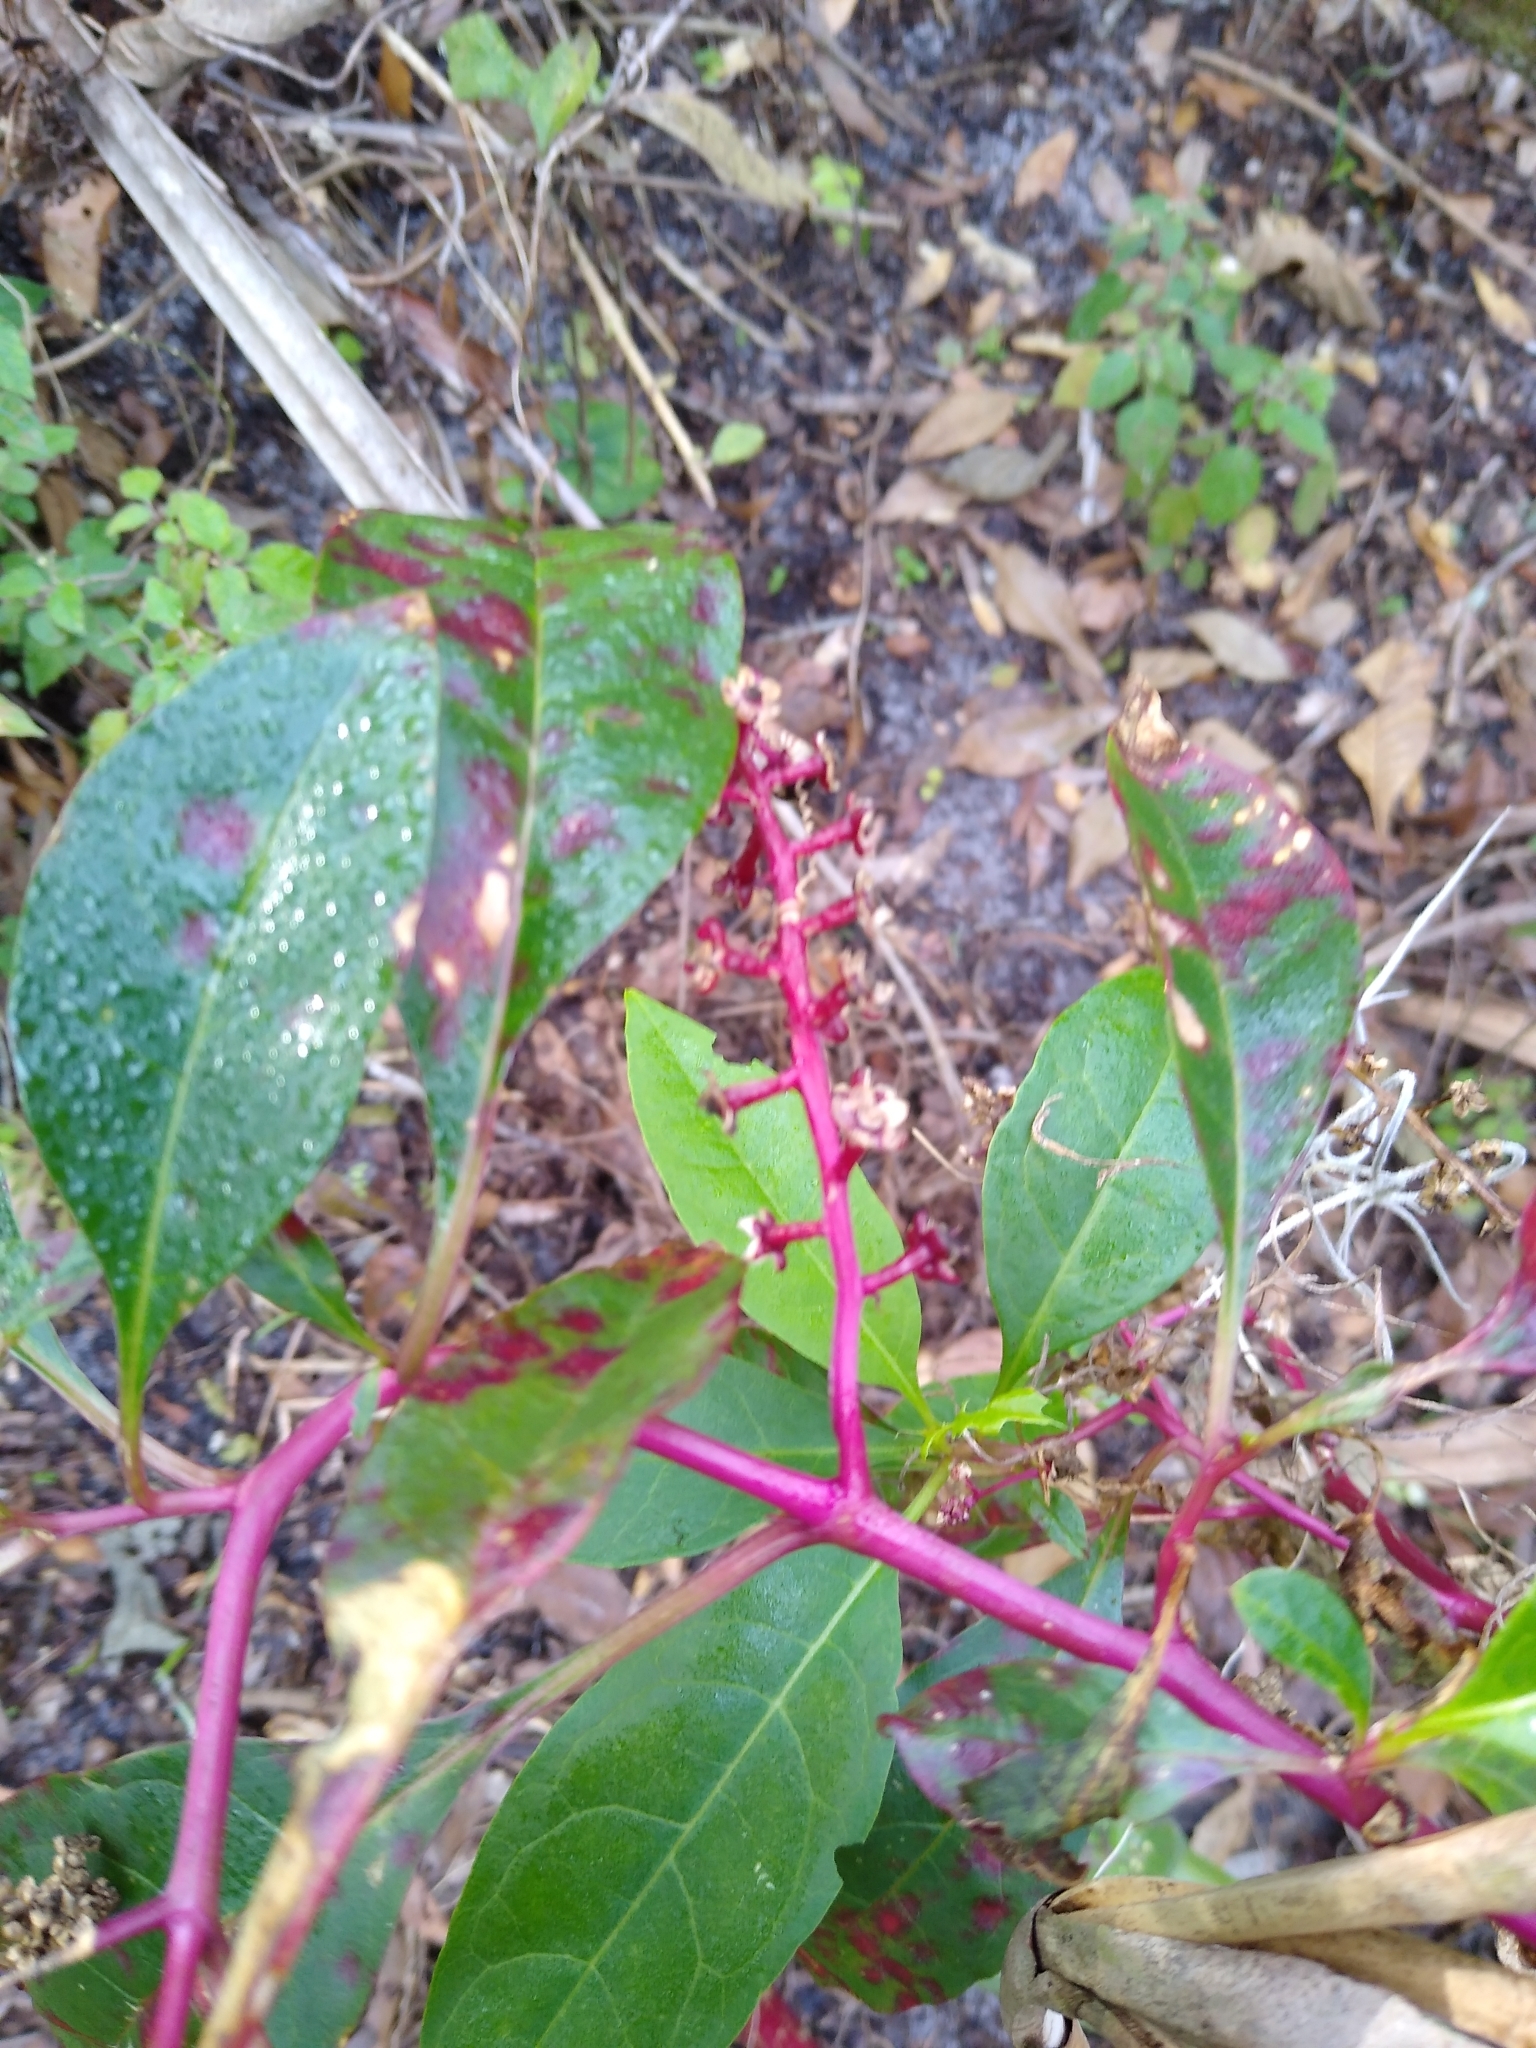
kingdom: Plantae
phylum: Tracheophyta
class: Magnoliopsida
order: Caryophyllales
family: Phytolaccaceae
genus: Phytolacca
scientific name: Phytolacca americana
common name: American pokeweed
